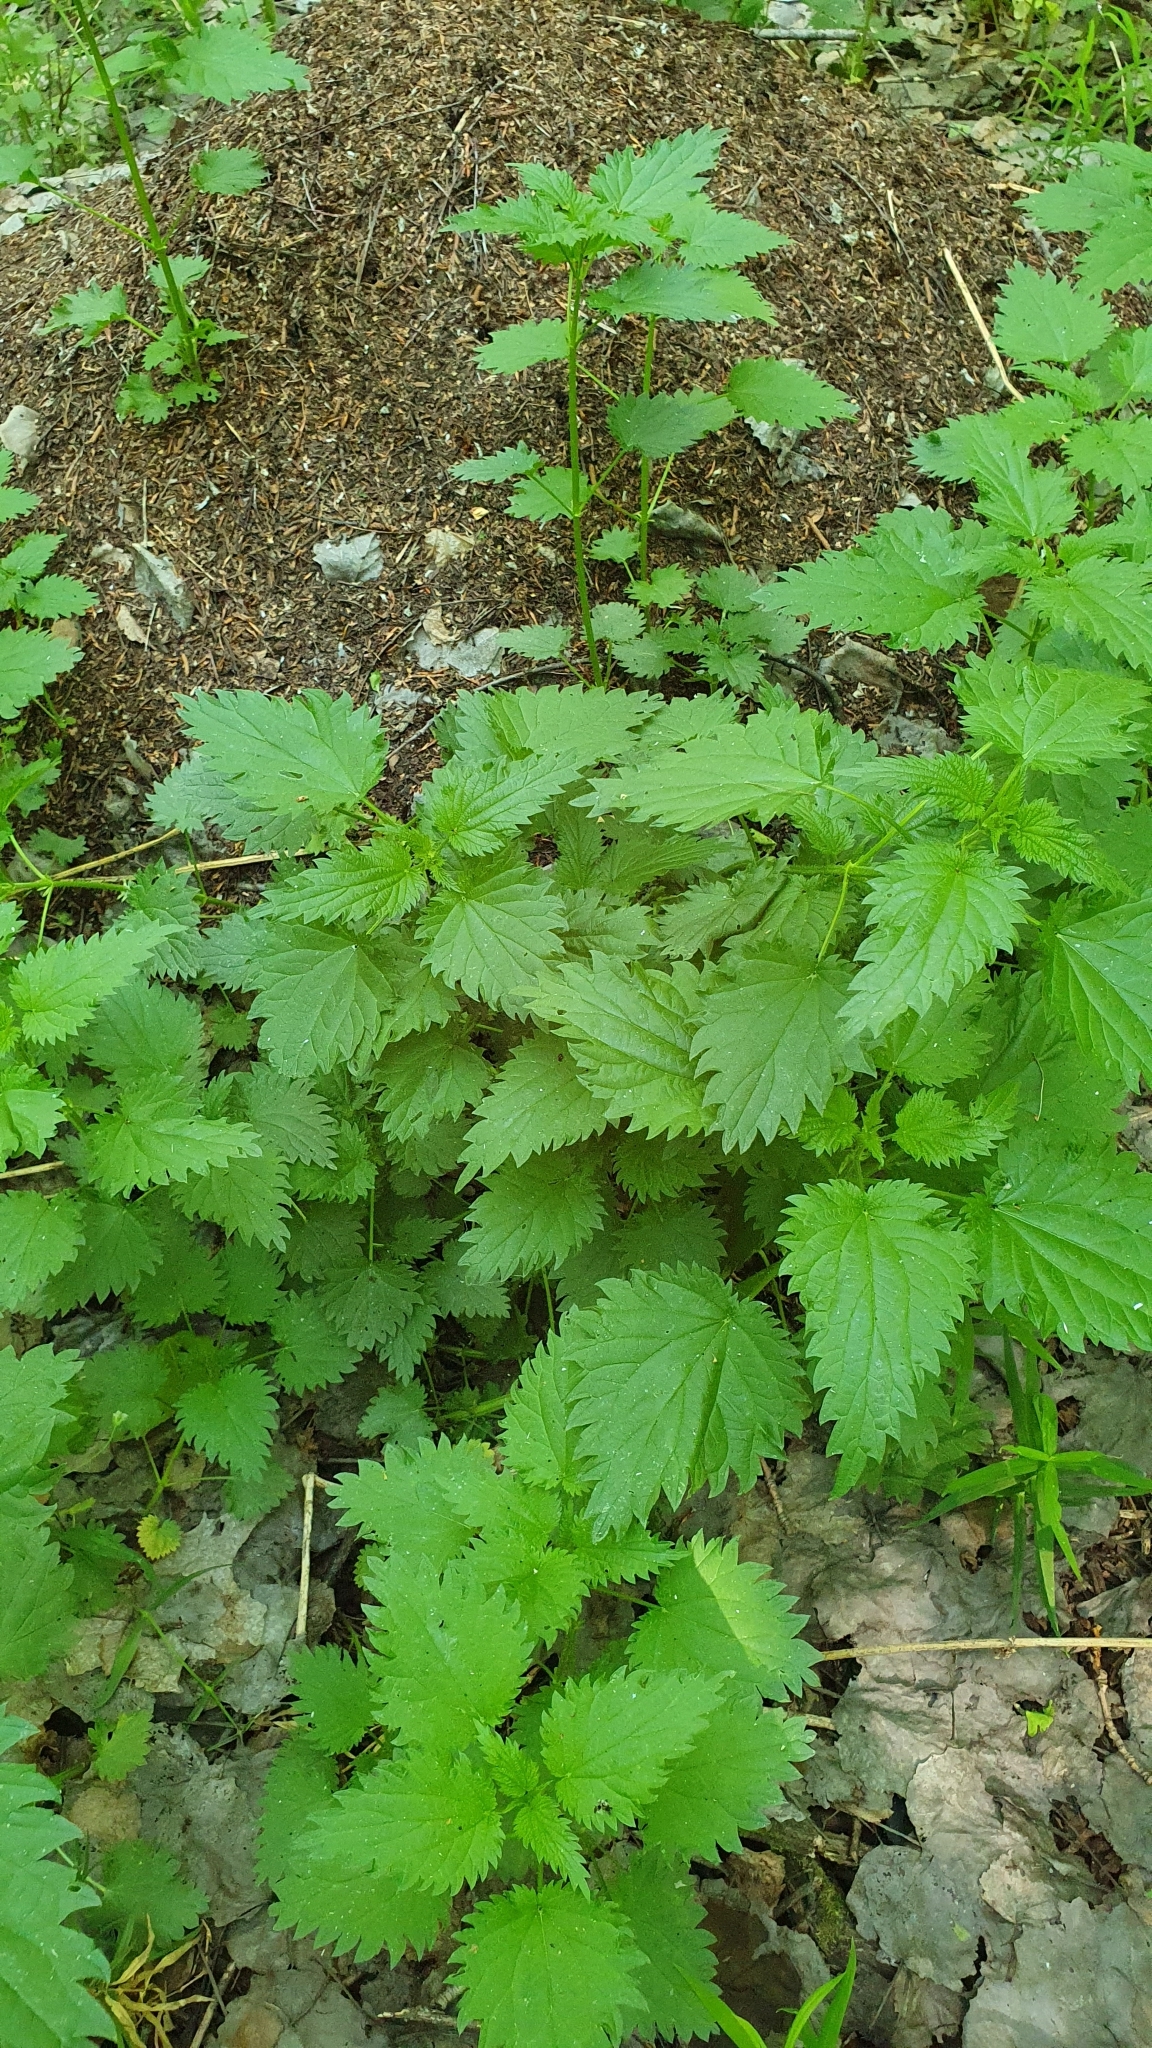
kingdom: Plantae
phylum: Tracheophyta
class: Magnoliopsida
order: Rosales
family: Urticaceae
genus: Urtica
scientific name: Urtica dioica
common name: Common nettle
